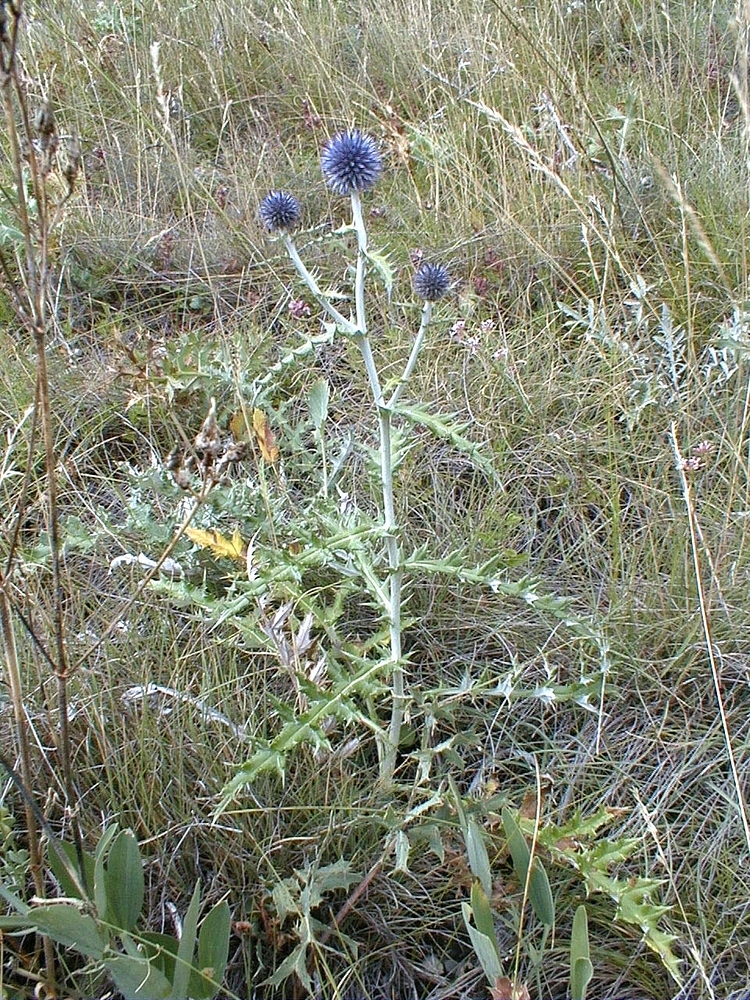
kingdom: Plantae
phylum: Tracheophyta
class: Magnoliopsida
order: Asterales
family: Asteraceae
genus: Echinops
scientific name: Echinops ritro
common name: Globe thistle
